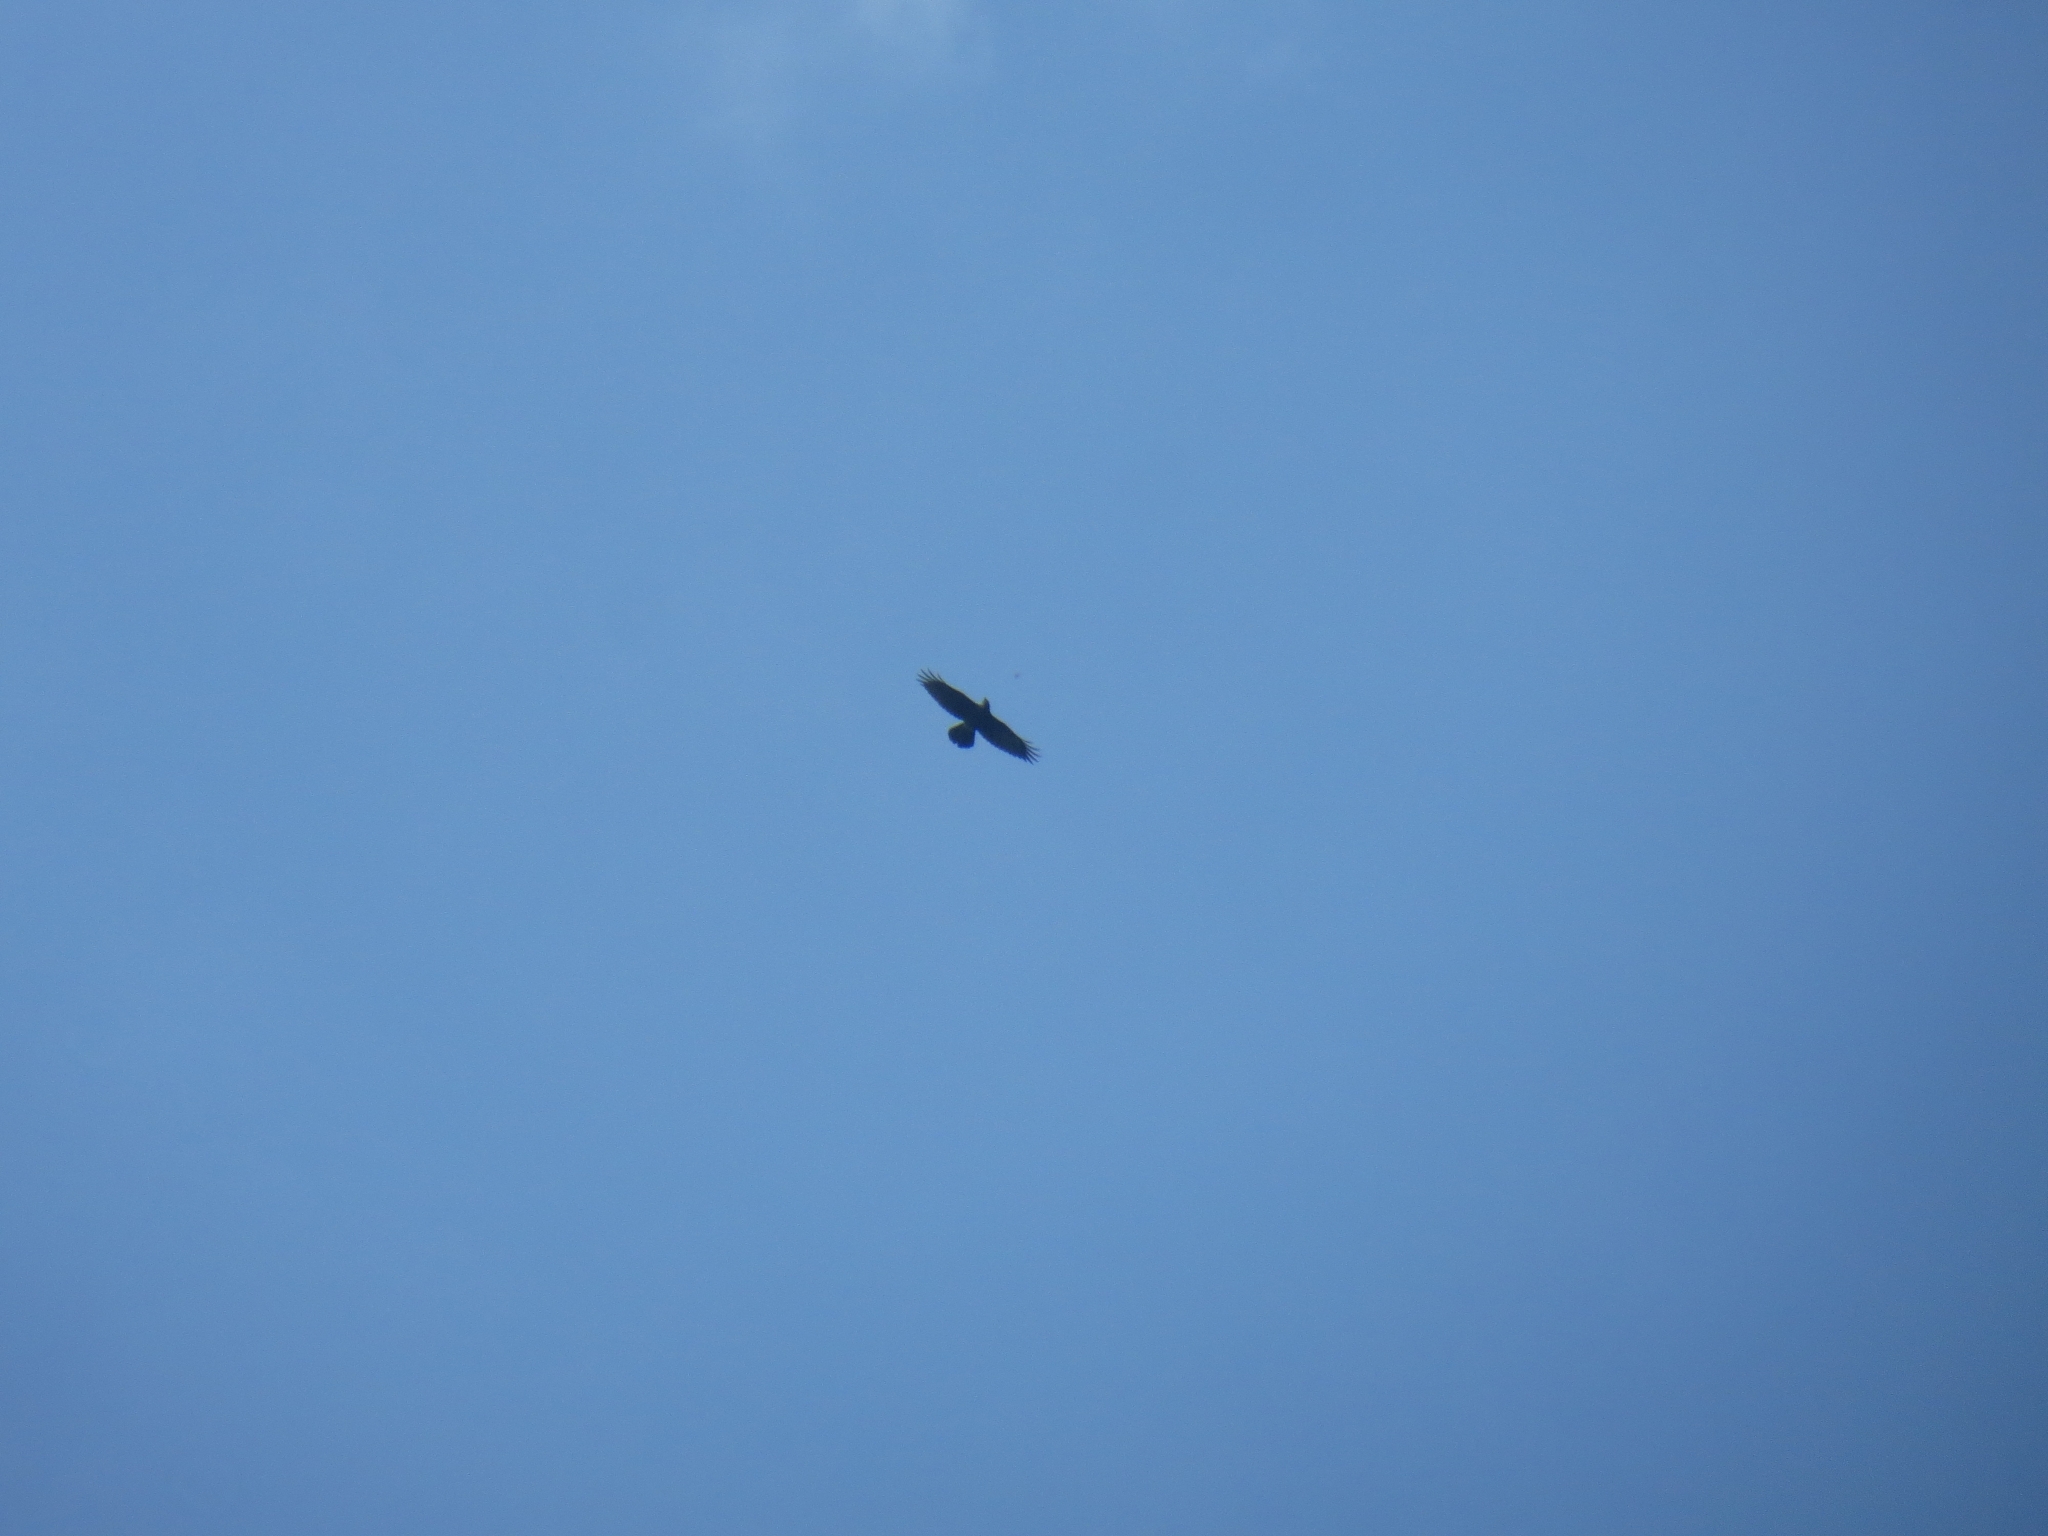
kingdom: Animalia
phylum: Chordata
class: Aves
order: Passeriformes
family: Corvidae
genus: Corvus
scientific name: Corvus corax
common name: Common raven
